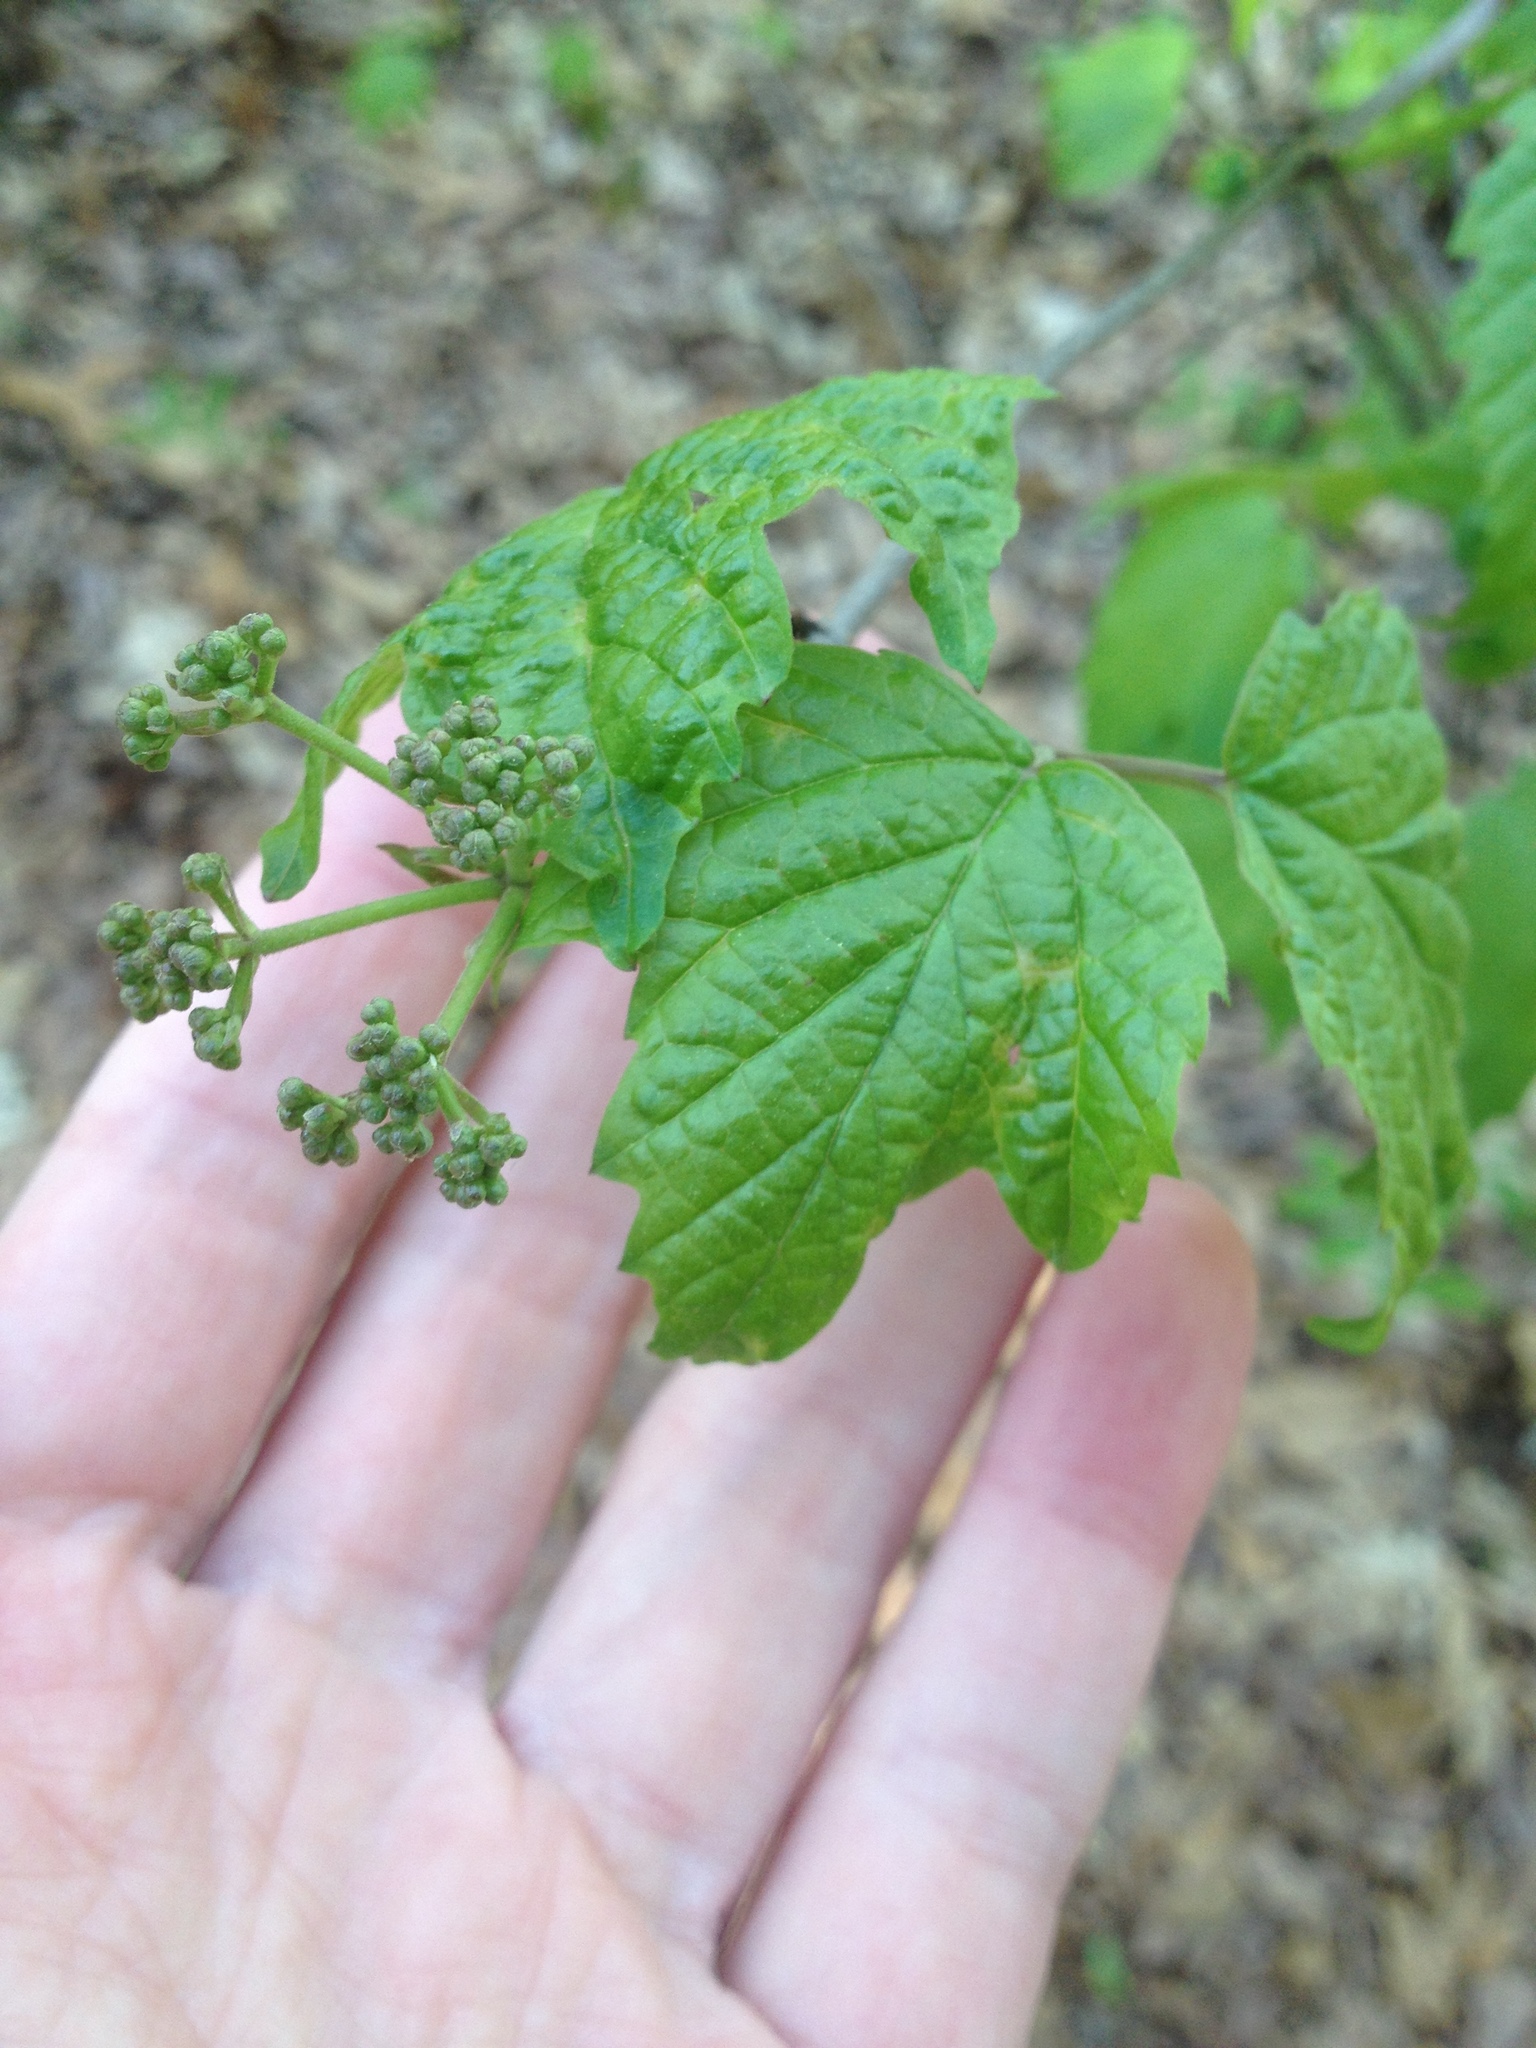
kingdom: Plantae
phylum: Tracheophyta
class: Magnoliopsida
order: Dipsacales
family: Viburnaceae
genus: Viburnum
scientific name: Viburnum acerifolium
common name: Dockmackie
